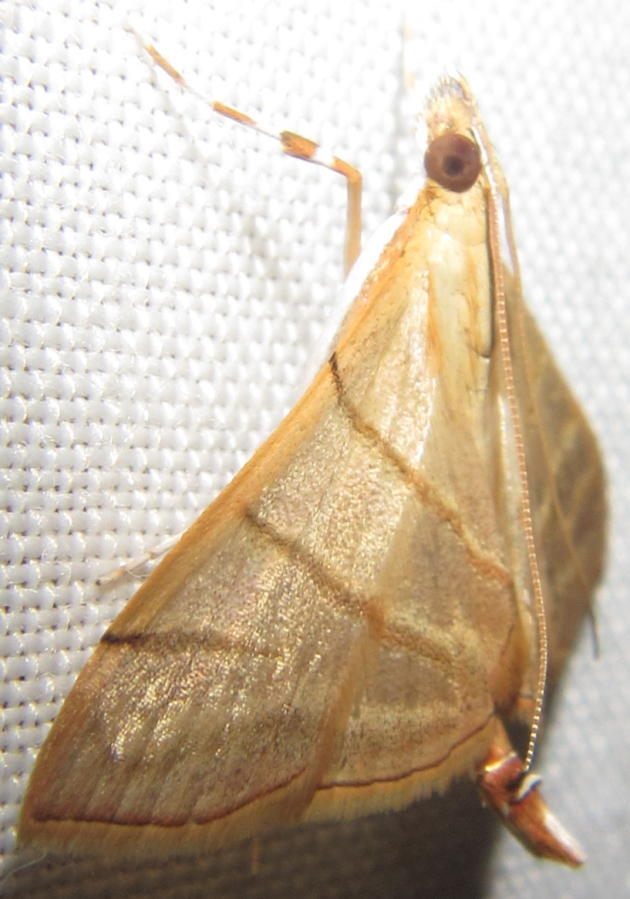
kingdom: Animalia
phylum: Arthropoda
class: Insecta
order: Lepidoptera
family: Crambidae
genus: Cnaphalocrocis
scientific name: Cnaphalocrocis Marasmia trapezalis
